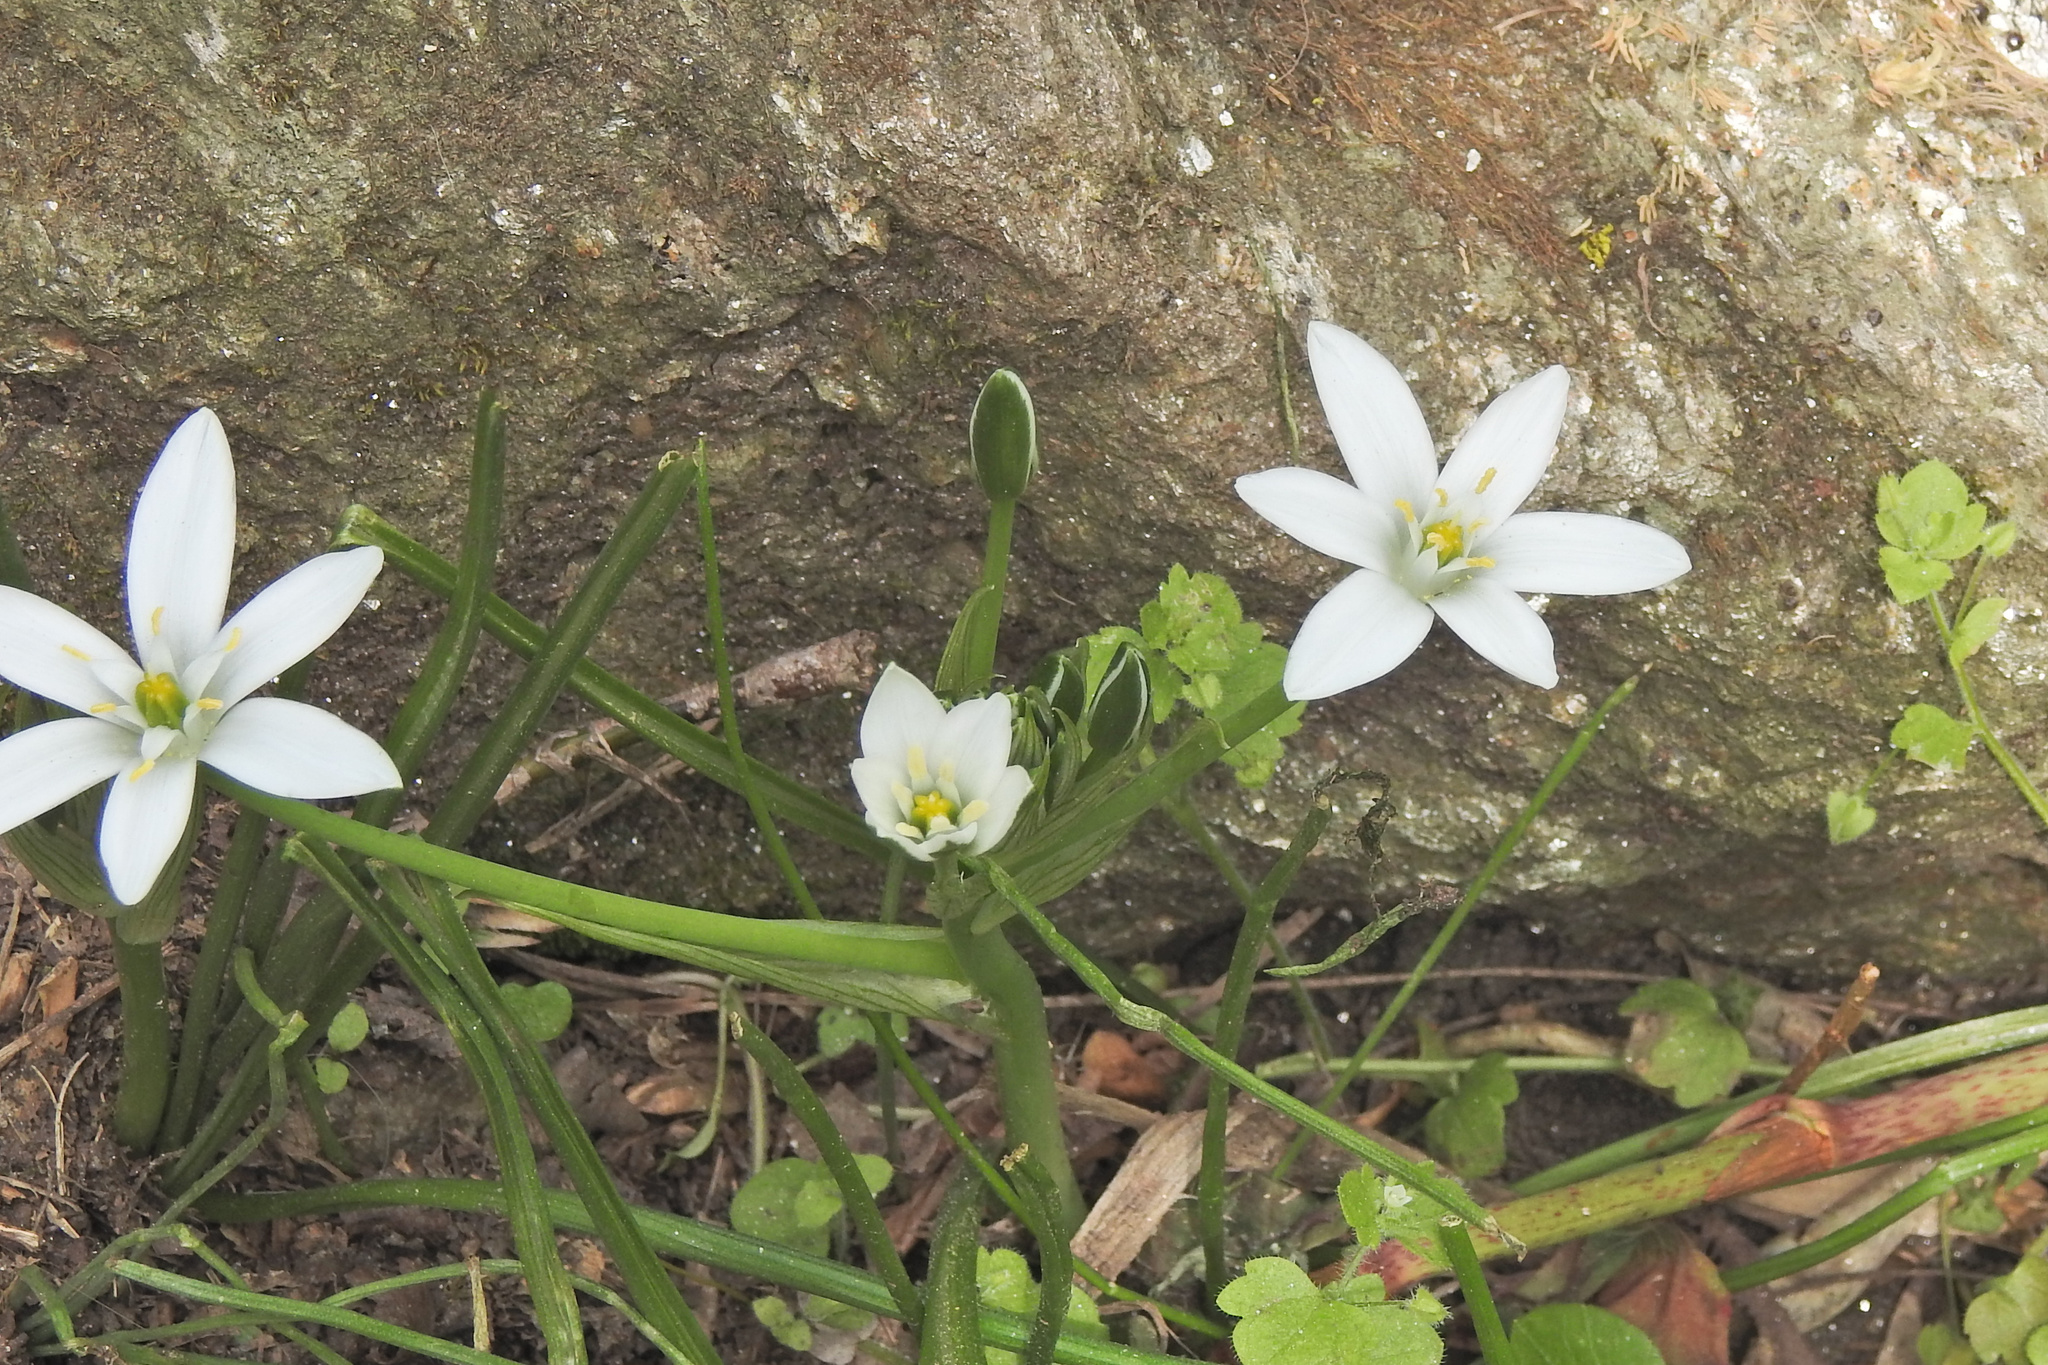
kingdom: Plantae
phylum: Tracheophyta
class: Liliopsida
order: Asparagales
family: Asparagaceae
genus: Ornithogalum
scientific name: Ornithogalum umbellatum
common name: Garden star-of-bethlehem
